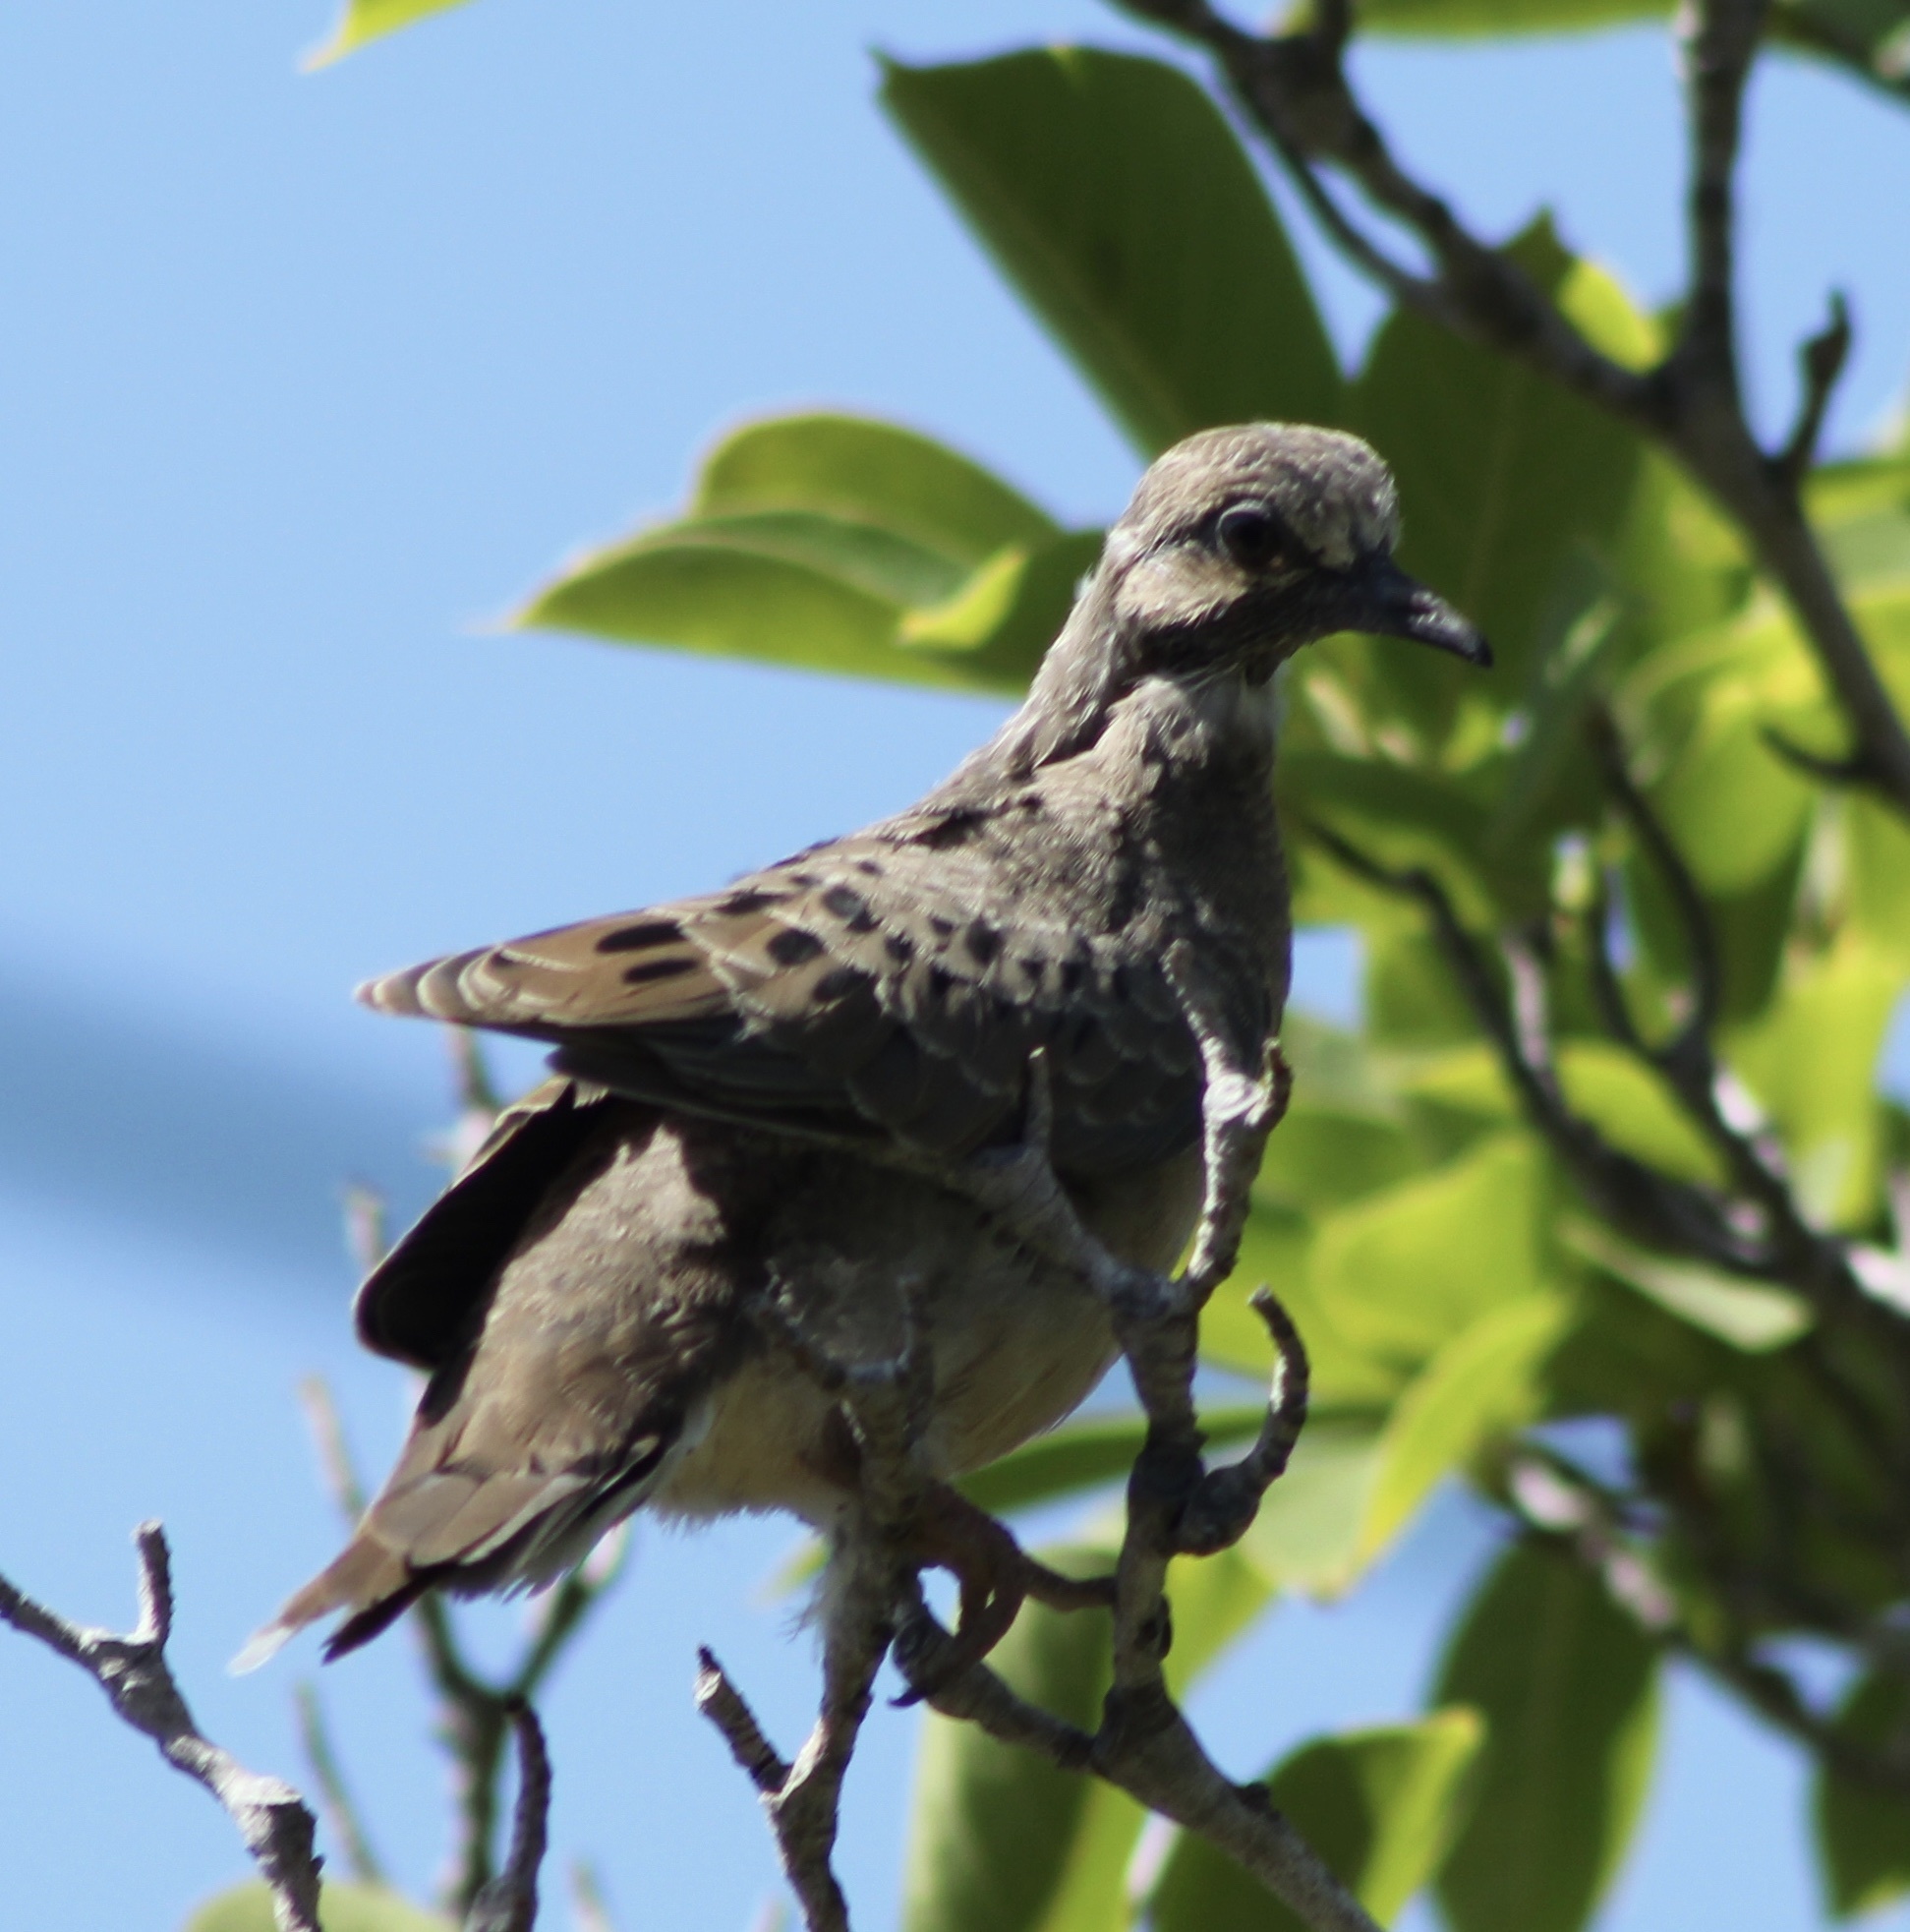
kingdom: Animalia
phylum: Chordata
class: Aves
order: Columbiformes
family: Columbidae
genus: Zenaida
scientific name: Zenaida macroura
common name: Mourning dove
